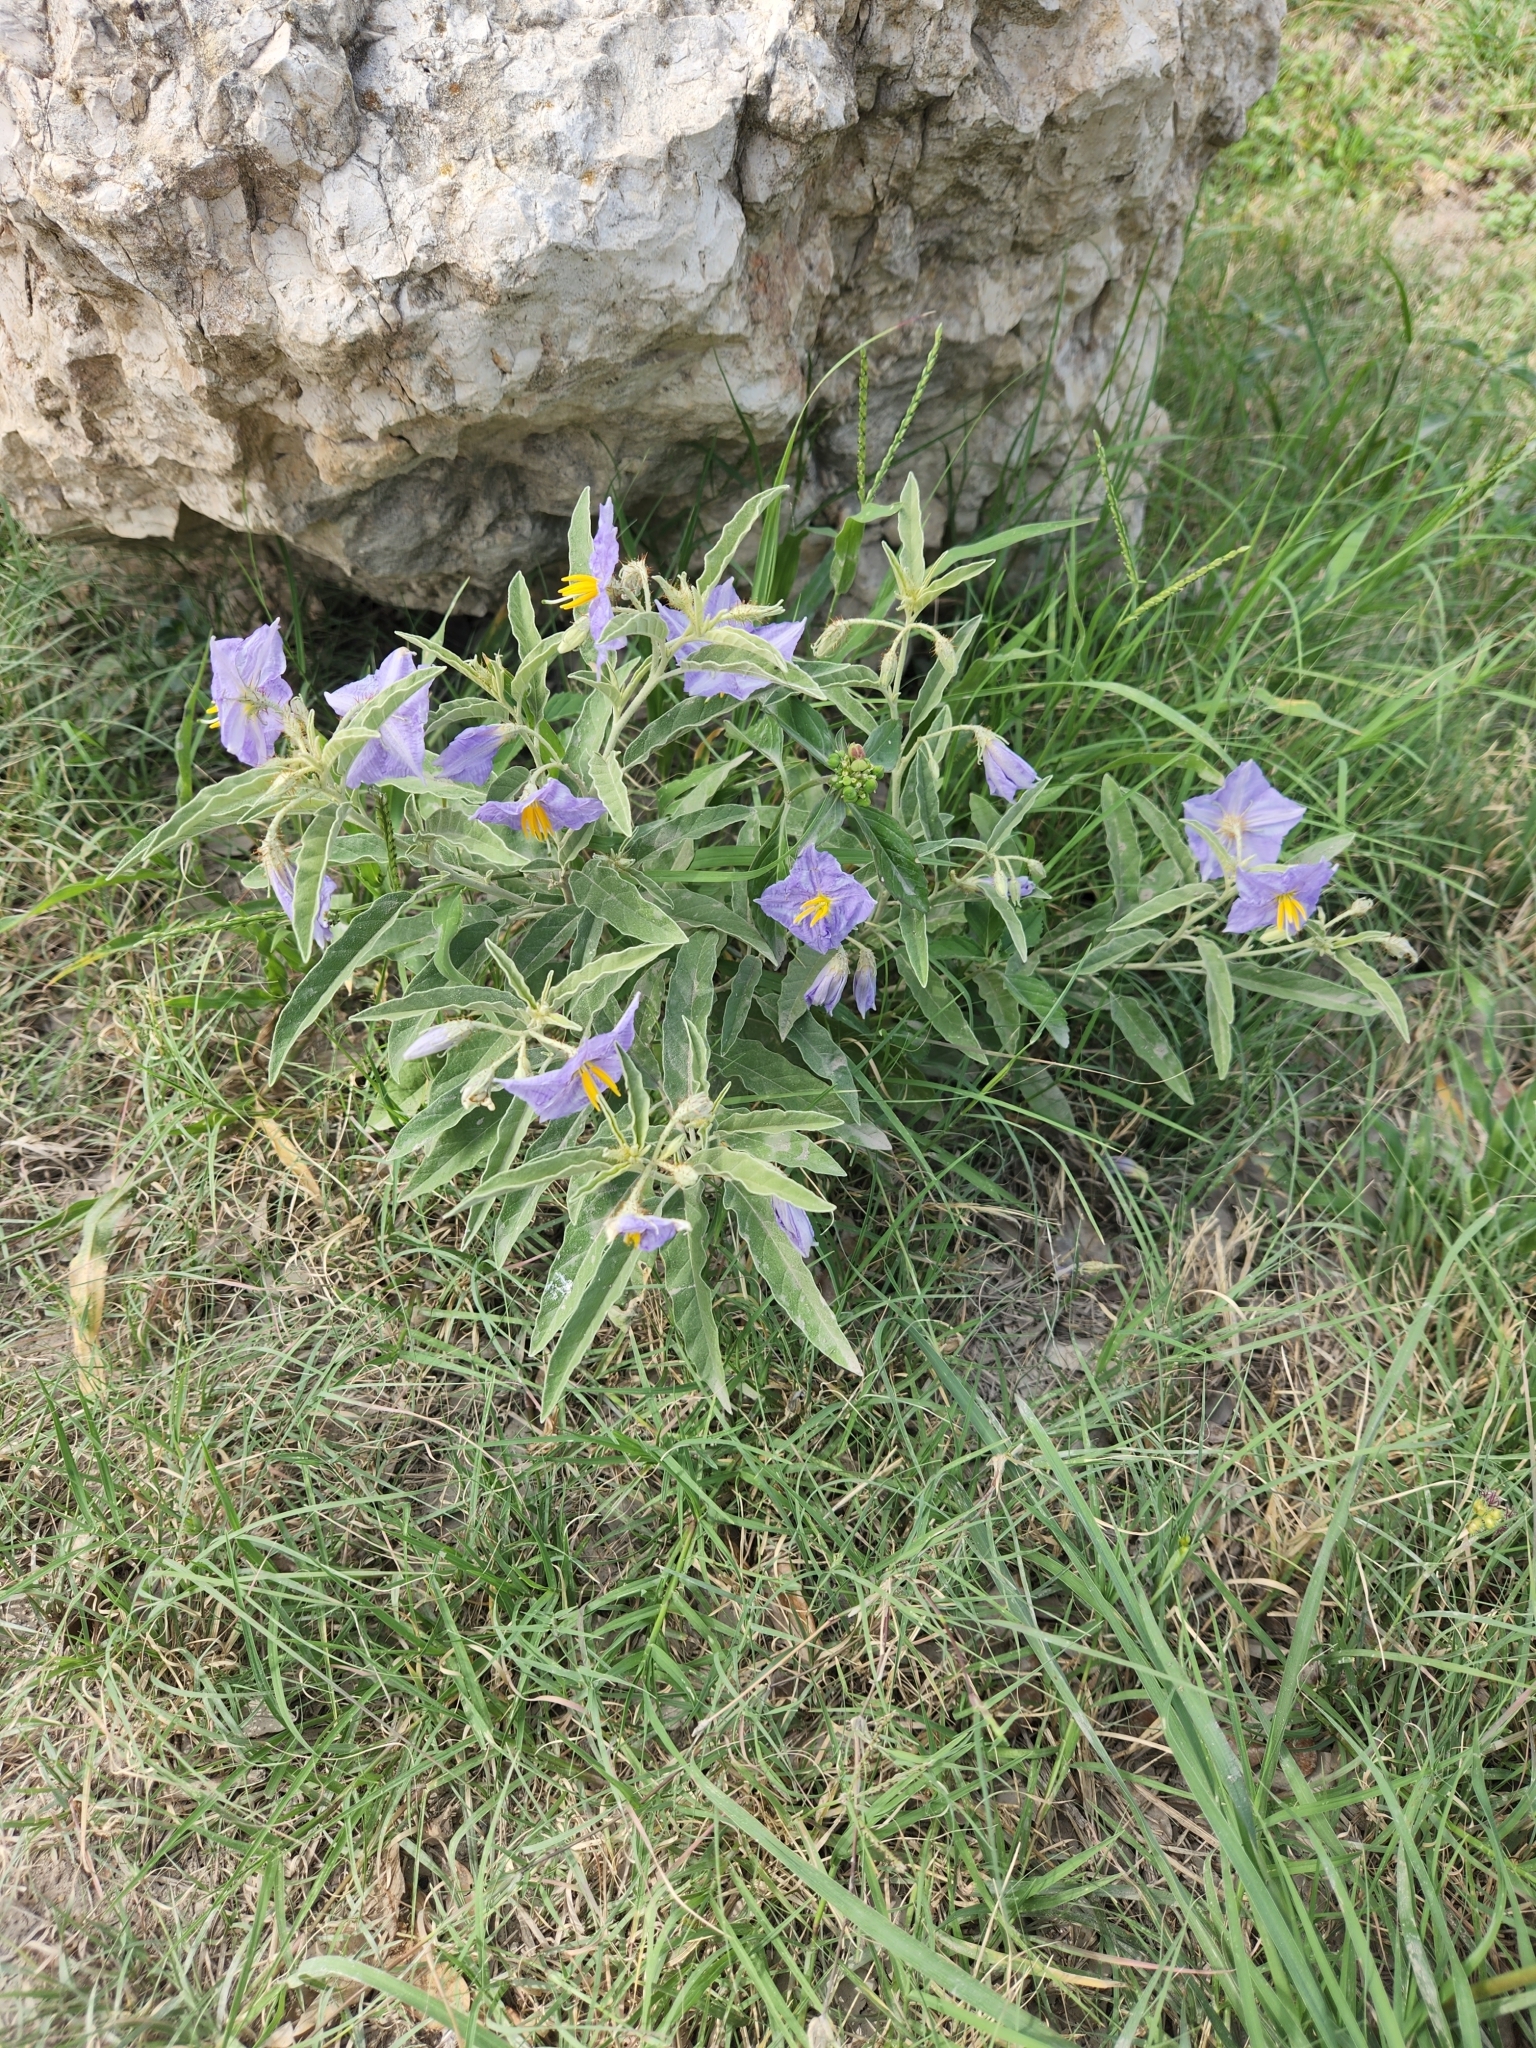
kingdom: Plantae
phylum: Tracheophyta
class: Magnoliopsida
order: Solanales
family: Solanaceae
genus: Solanum
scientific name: Solanum elaeagnifolium
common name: Silverleaf nightshade
